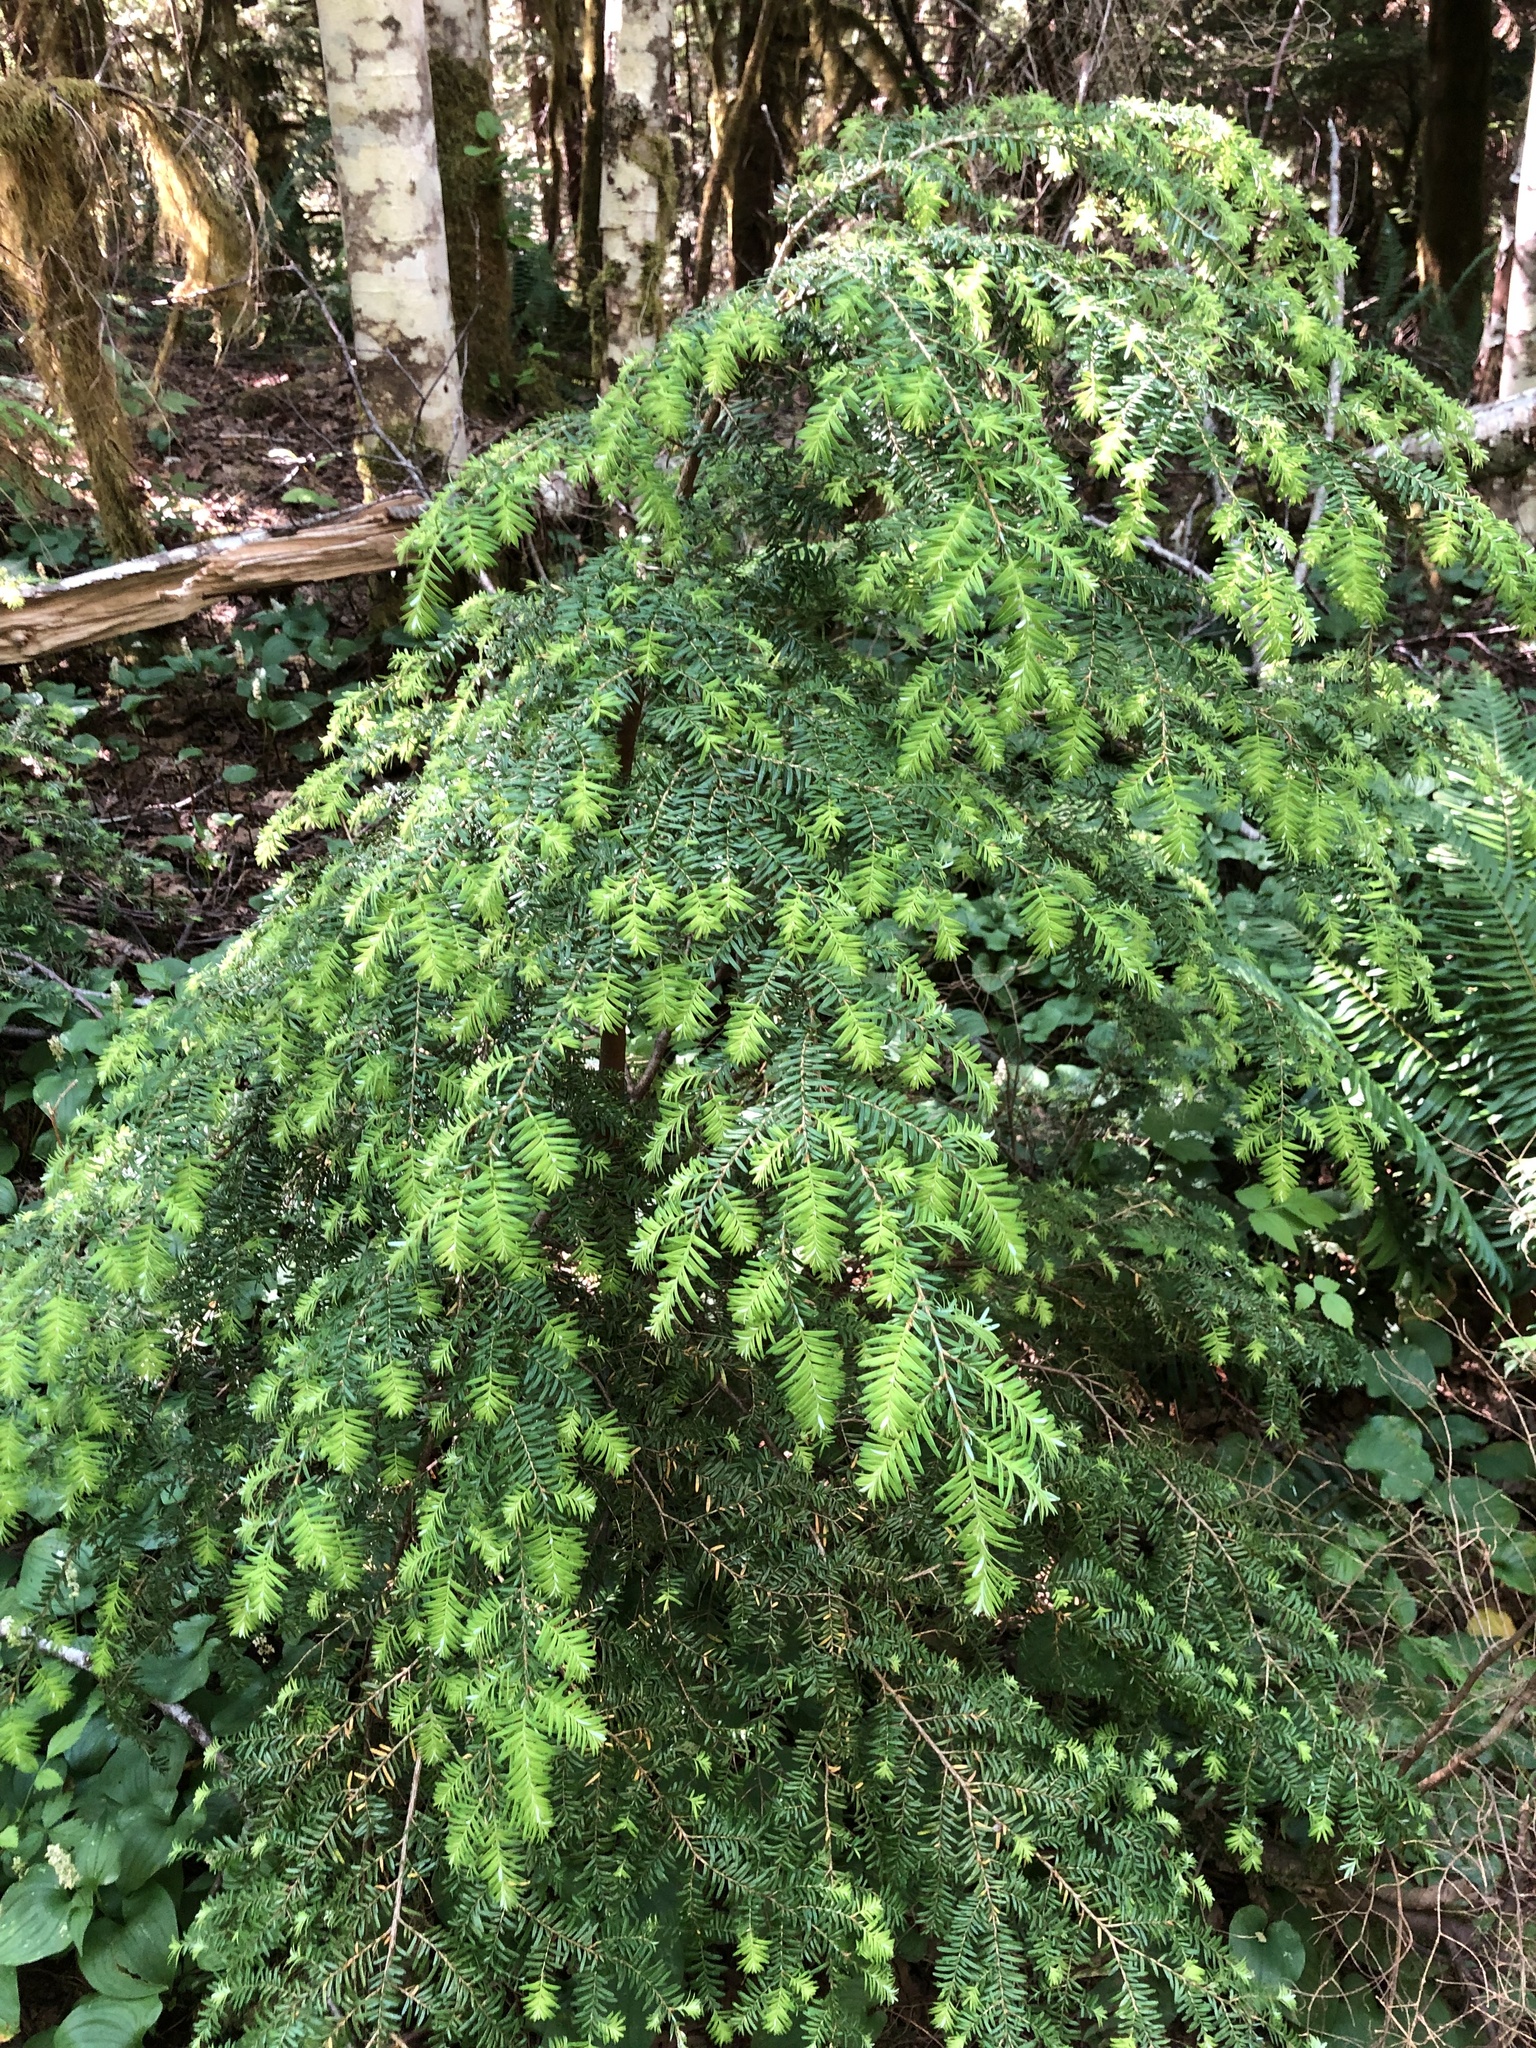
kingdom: Plantae
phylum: Tracheophyta
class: Pinopsida
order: Pinales
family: Pinaceae
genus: Tsuga
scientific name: Tsuga heterophylla
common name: Western hemlock
